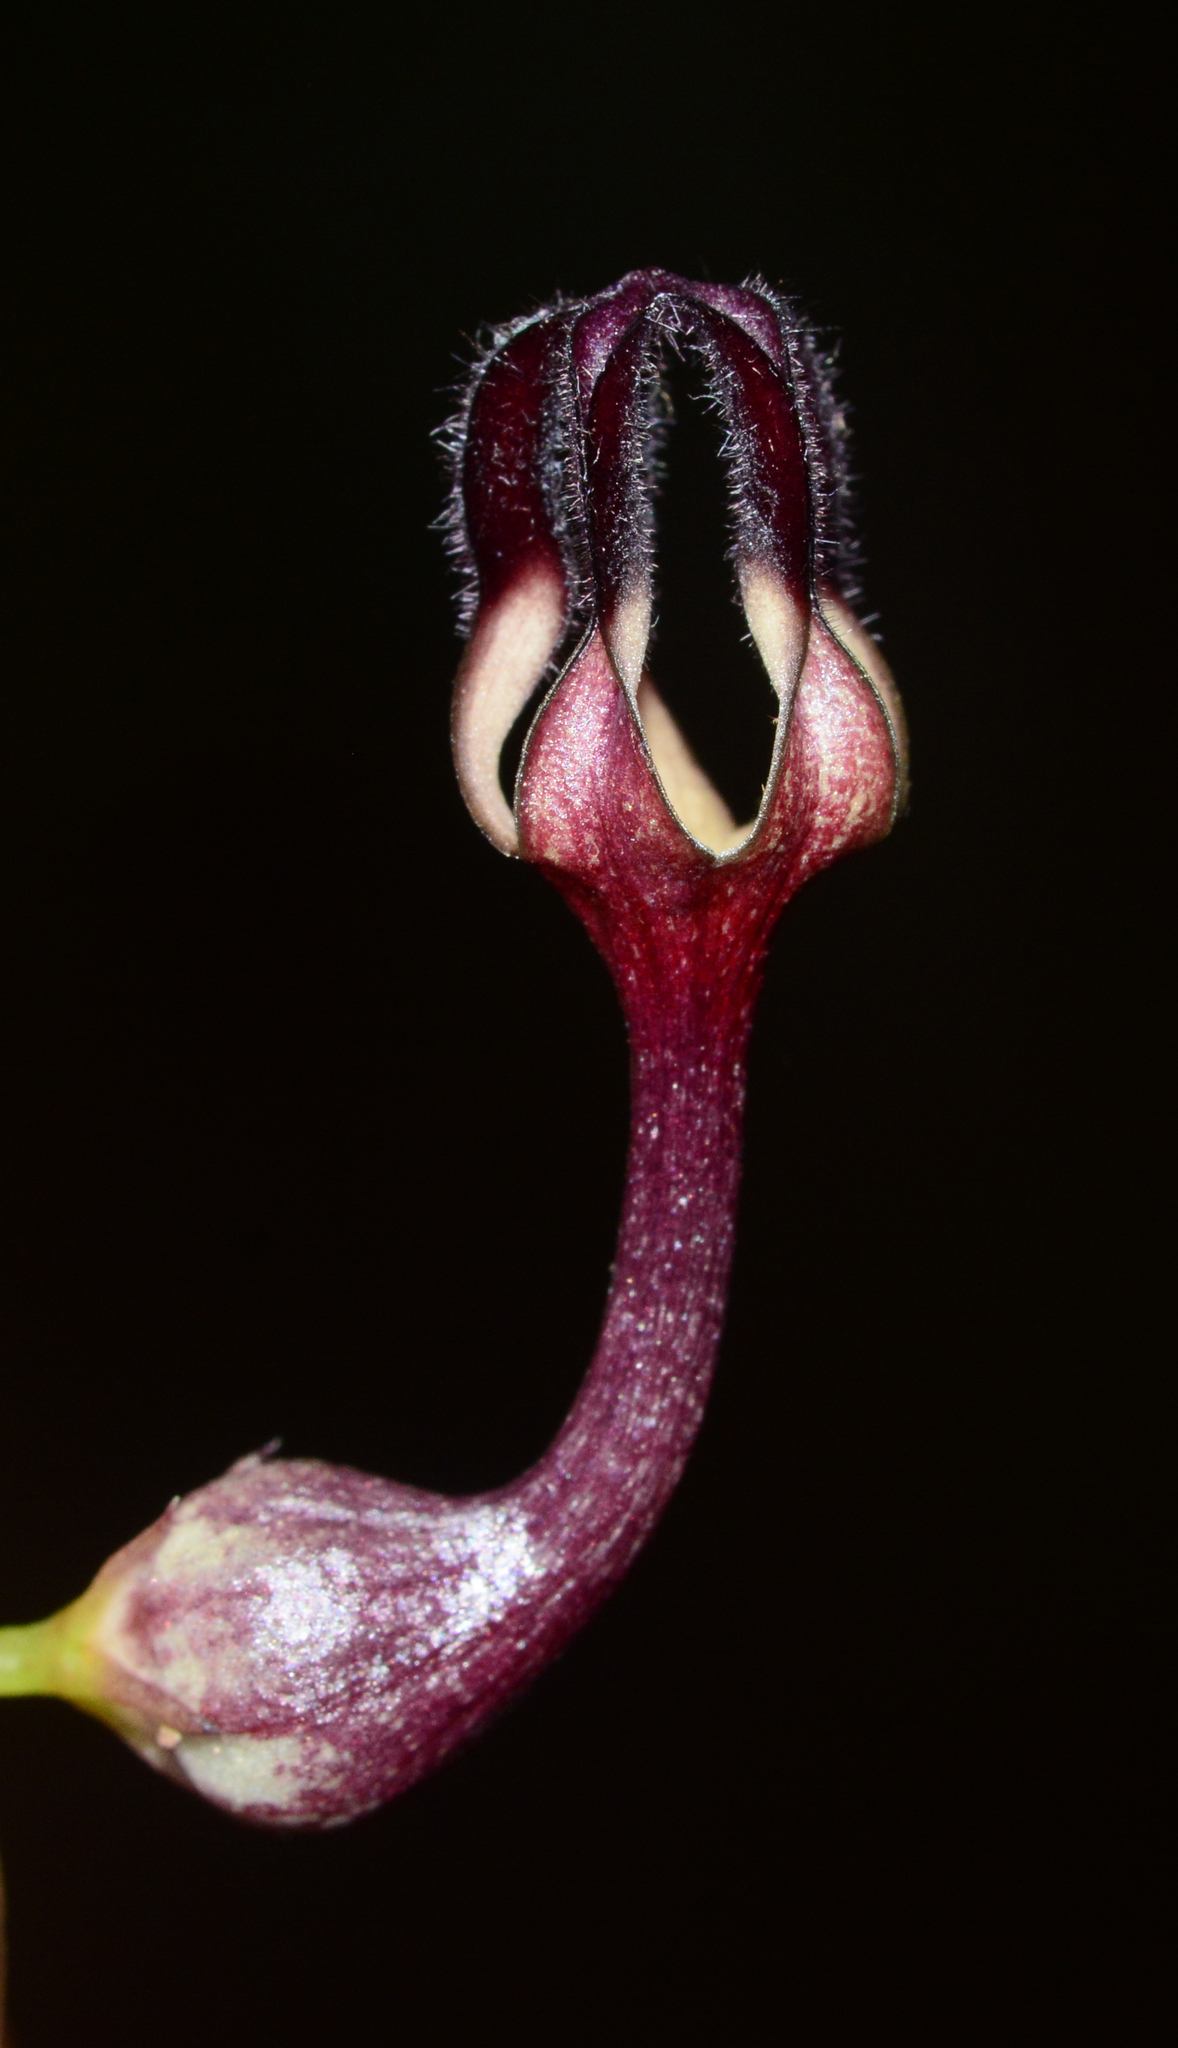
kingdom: Plantae
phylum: Tracheophyta
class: Magnoliopsida
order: Gentianales
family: Apocynaceae
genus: Ceropegia
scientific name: Ceropegia intermedia
